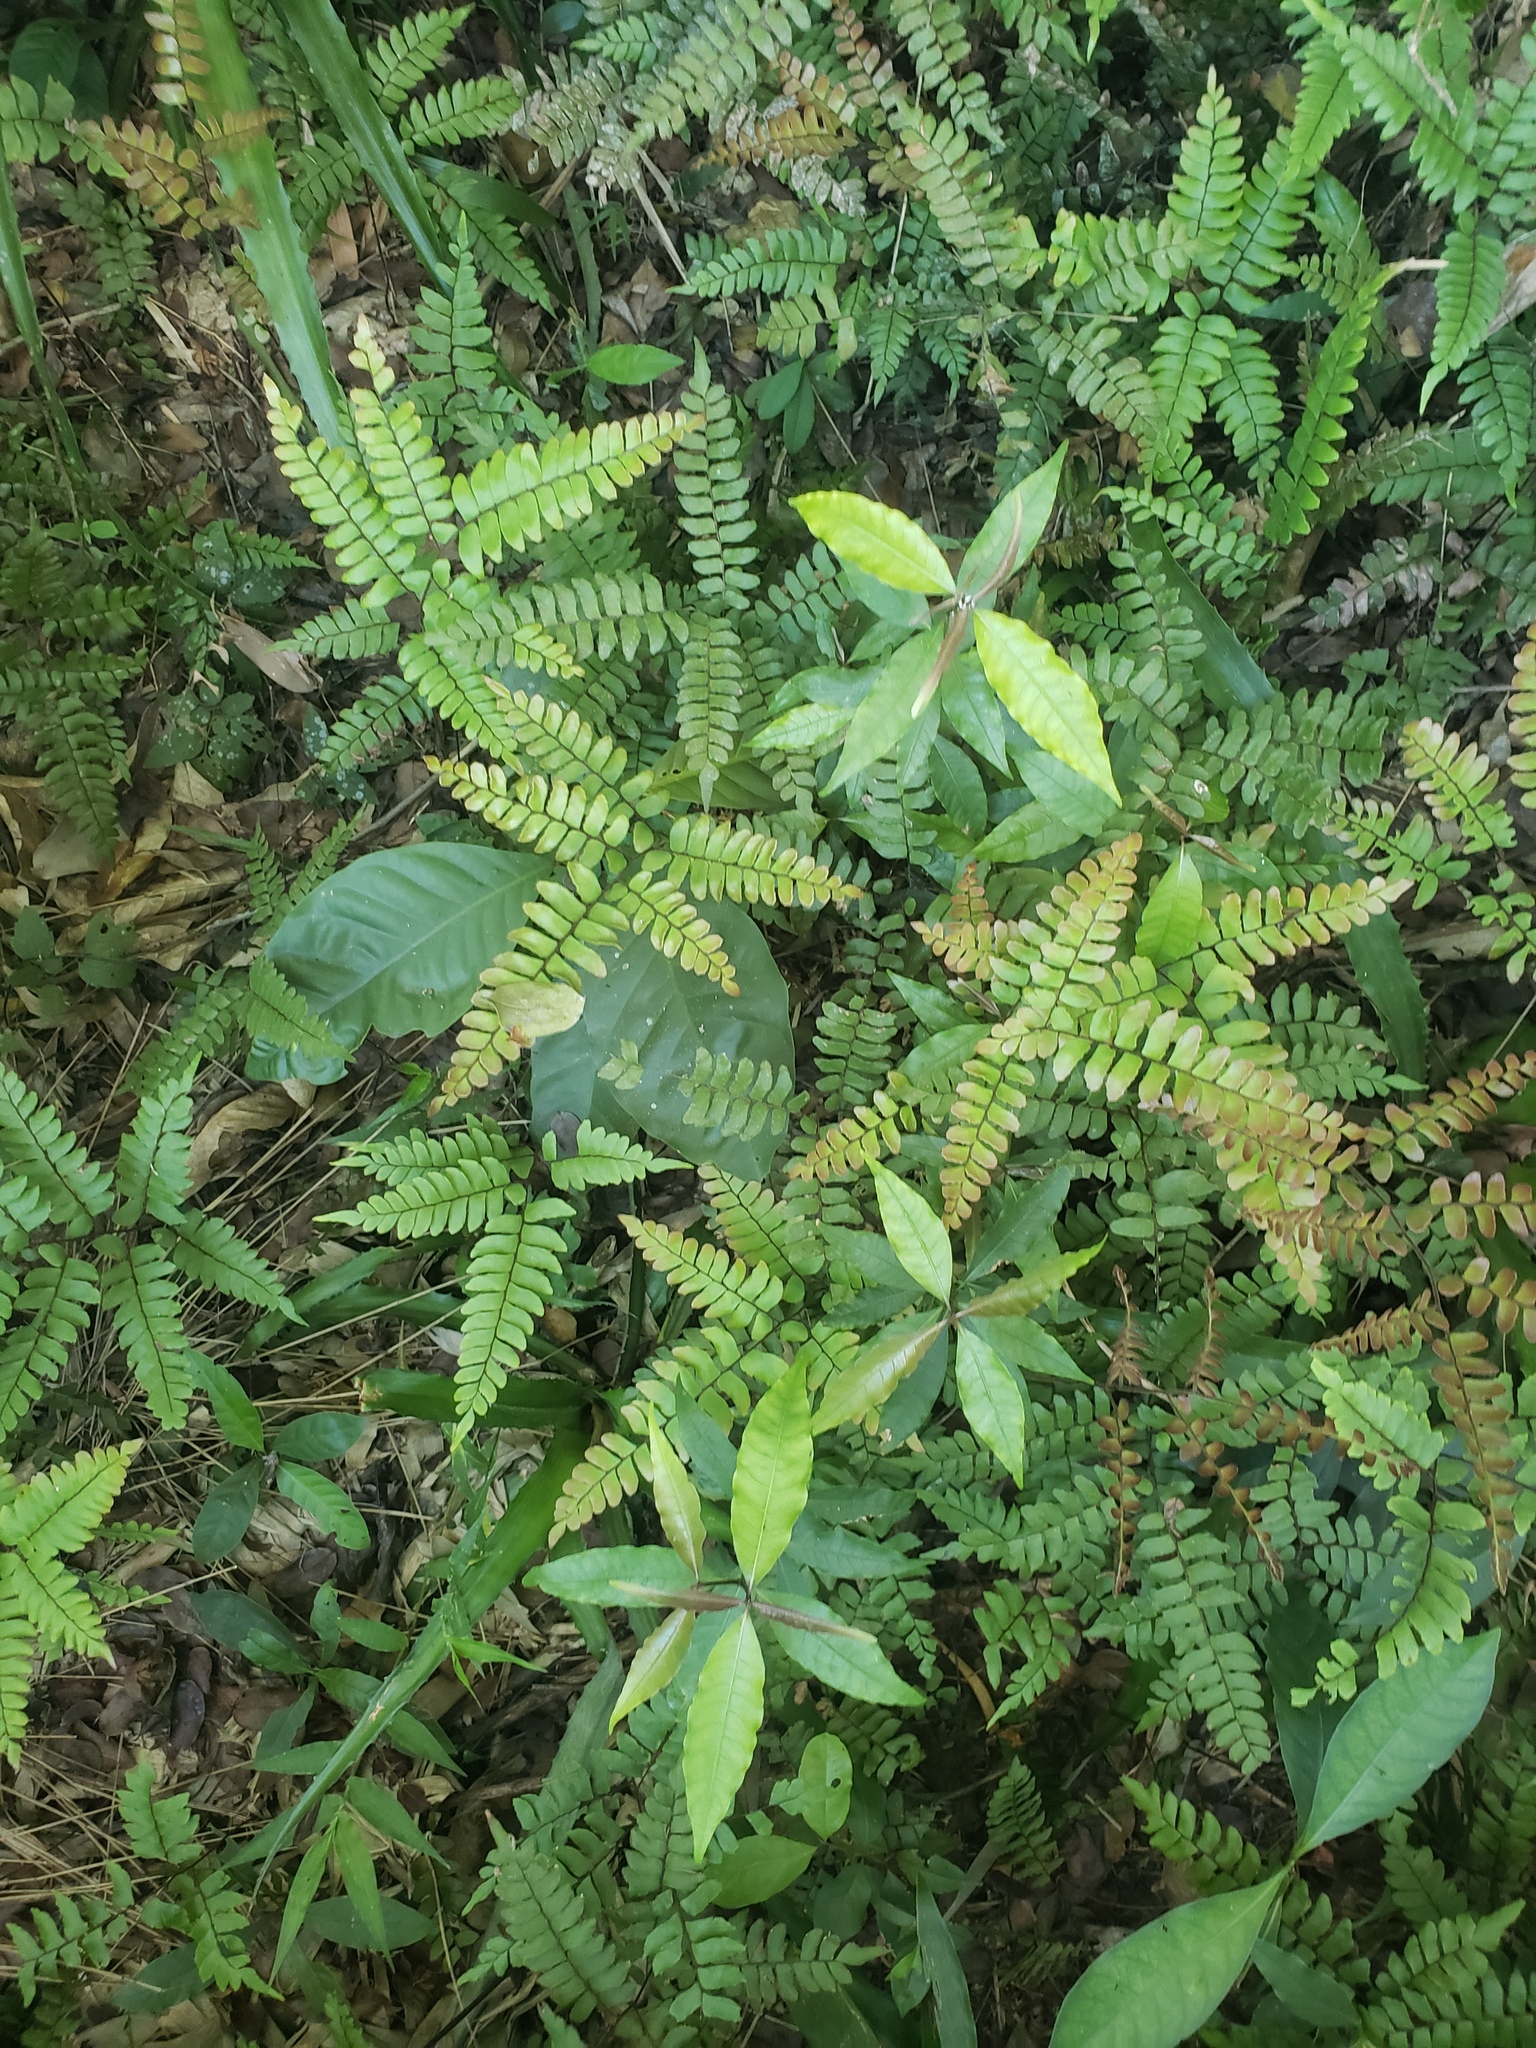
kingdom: Plantae
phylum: Tracheophyta
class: Polypodiopsida
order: Polypodiales
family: Pteridaceae
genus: Adiantum
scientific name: Adiantum latifolium
